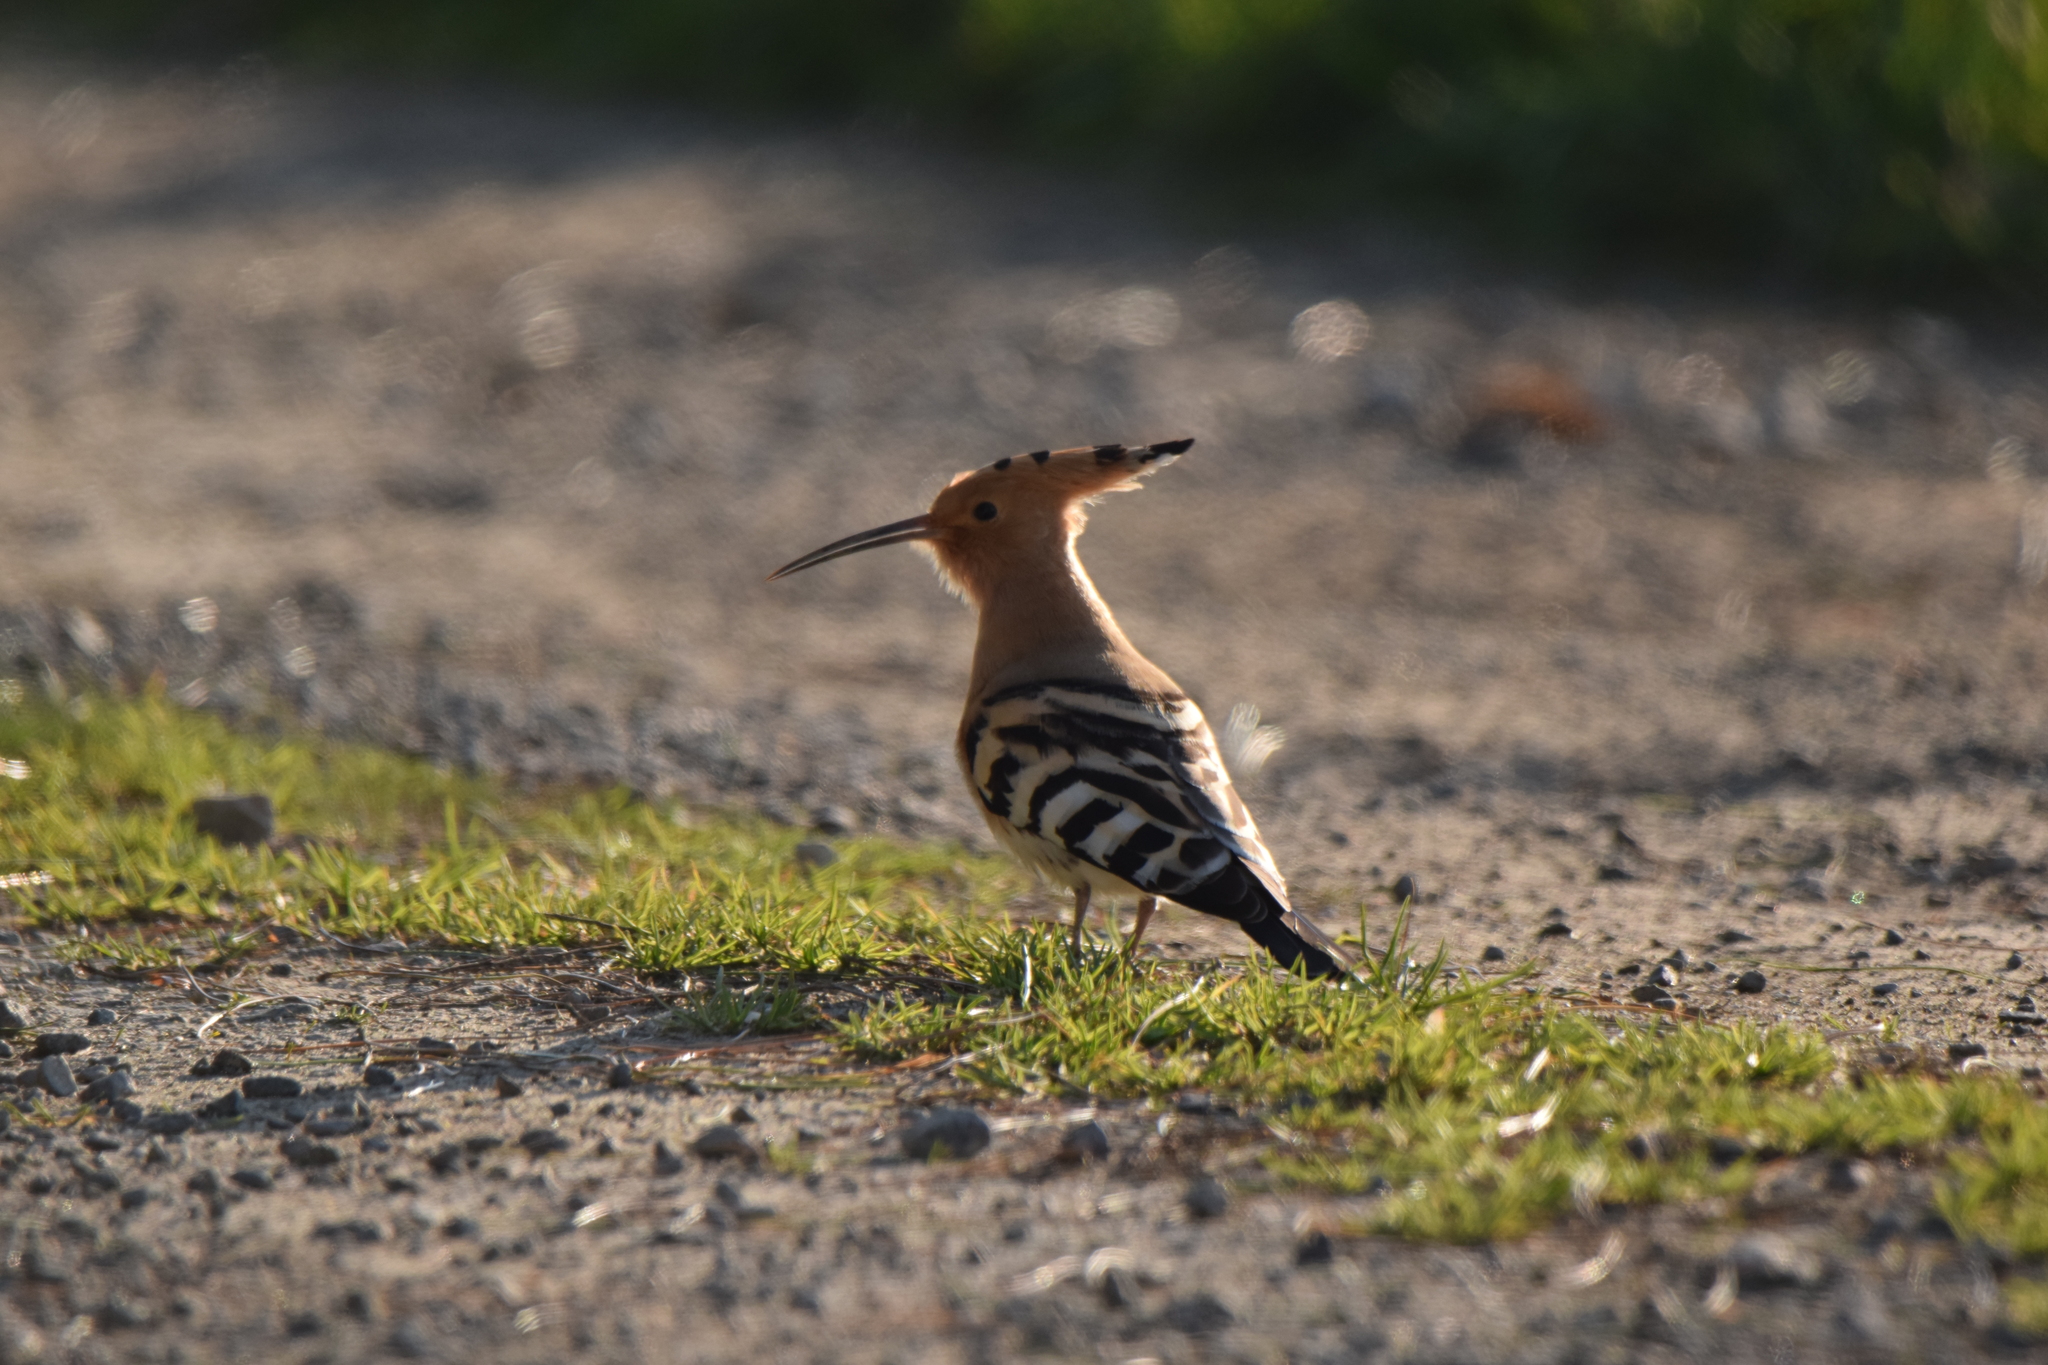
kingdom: Animalia
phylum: Chordata
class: Aves
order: Bucerotiformes
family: Upupidae
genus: Upupa
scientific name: Upupa epops
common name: Eurasian hoopoe
